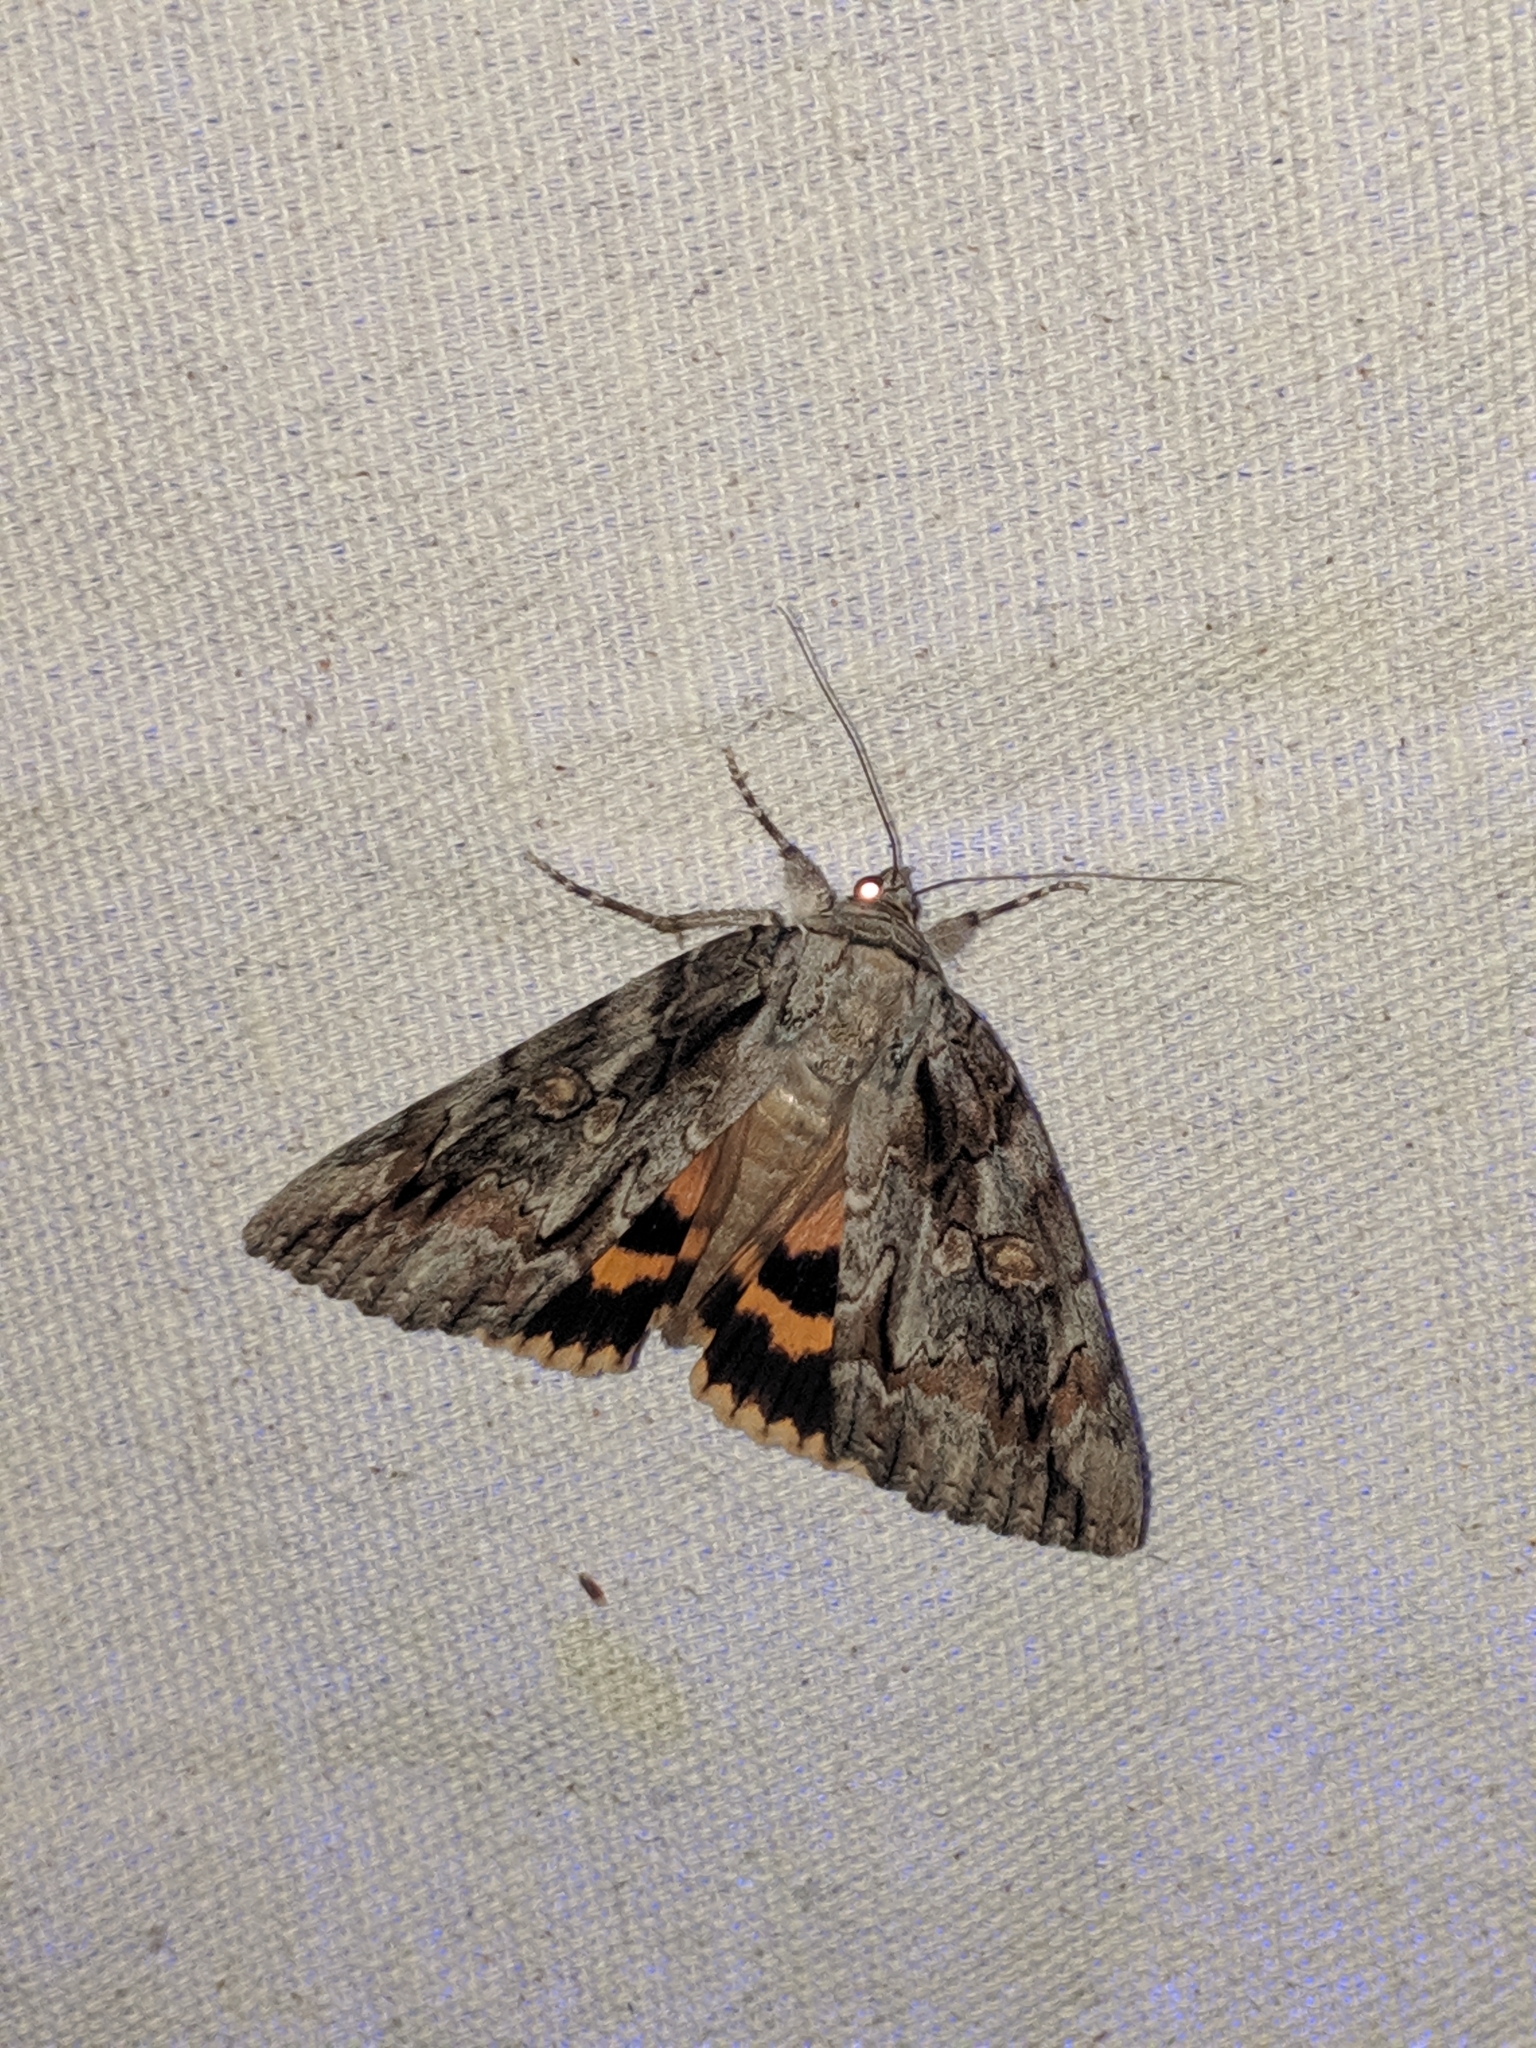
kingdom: Animalia
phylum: Arthropoda
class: Insecta
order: Lepidoptera
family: Erebidae
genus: Catocala
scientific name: Catocala neogama
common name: Bride underwing
